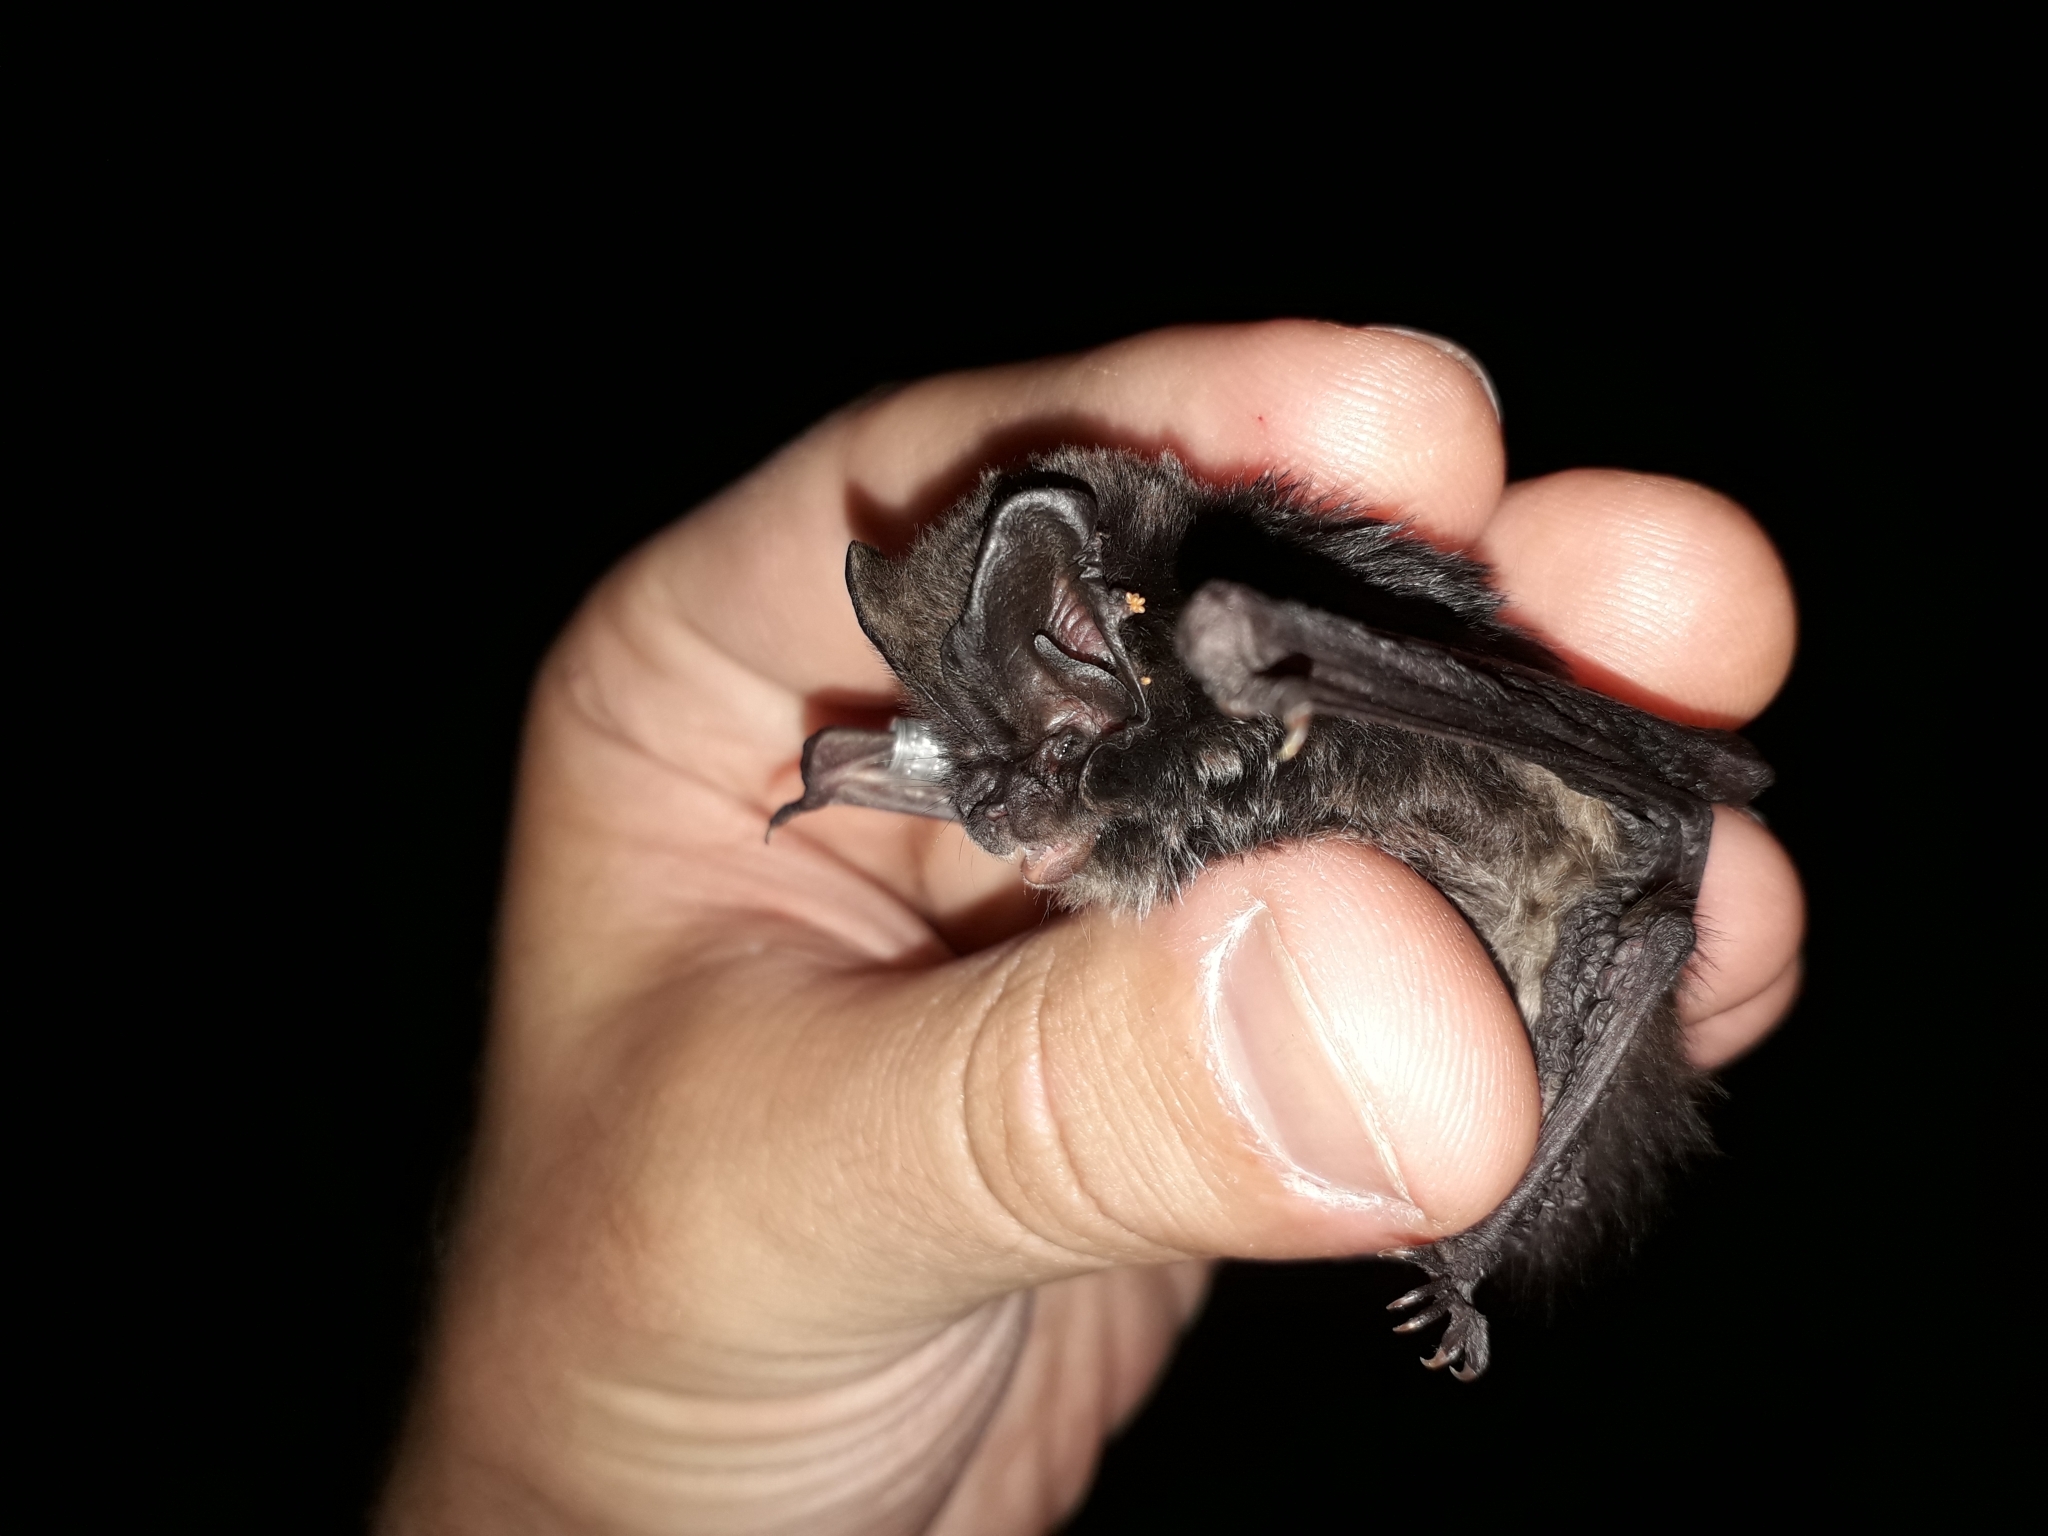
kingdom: Animalia
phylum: Chordata
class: Mammalia
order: Chiroptera
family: Vespertilionidae
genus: Barbastella
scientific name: Barbastella barbastellus
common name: Western barbastelle
